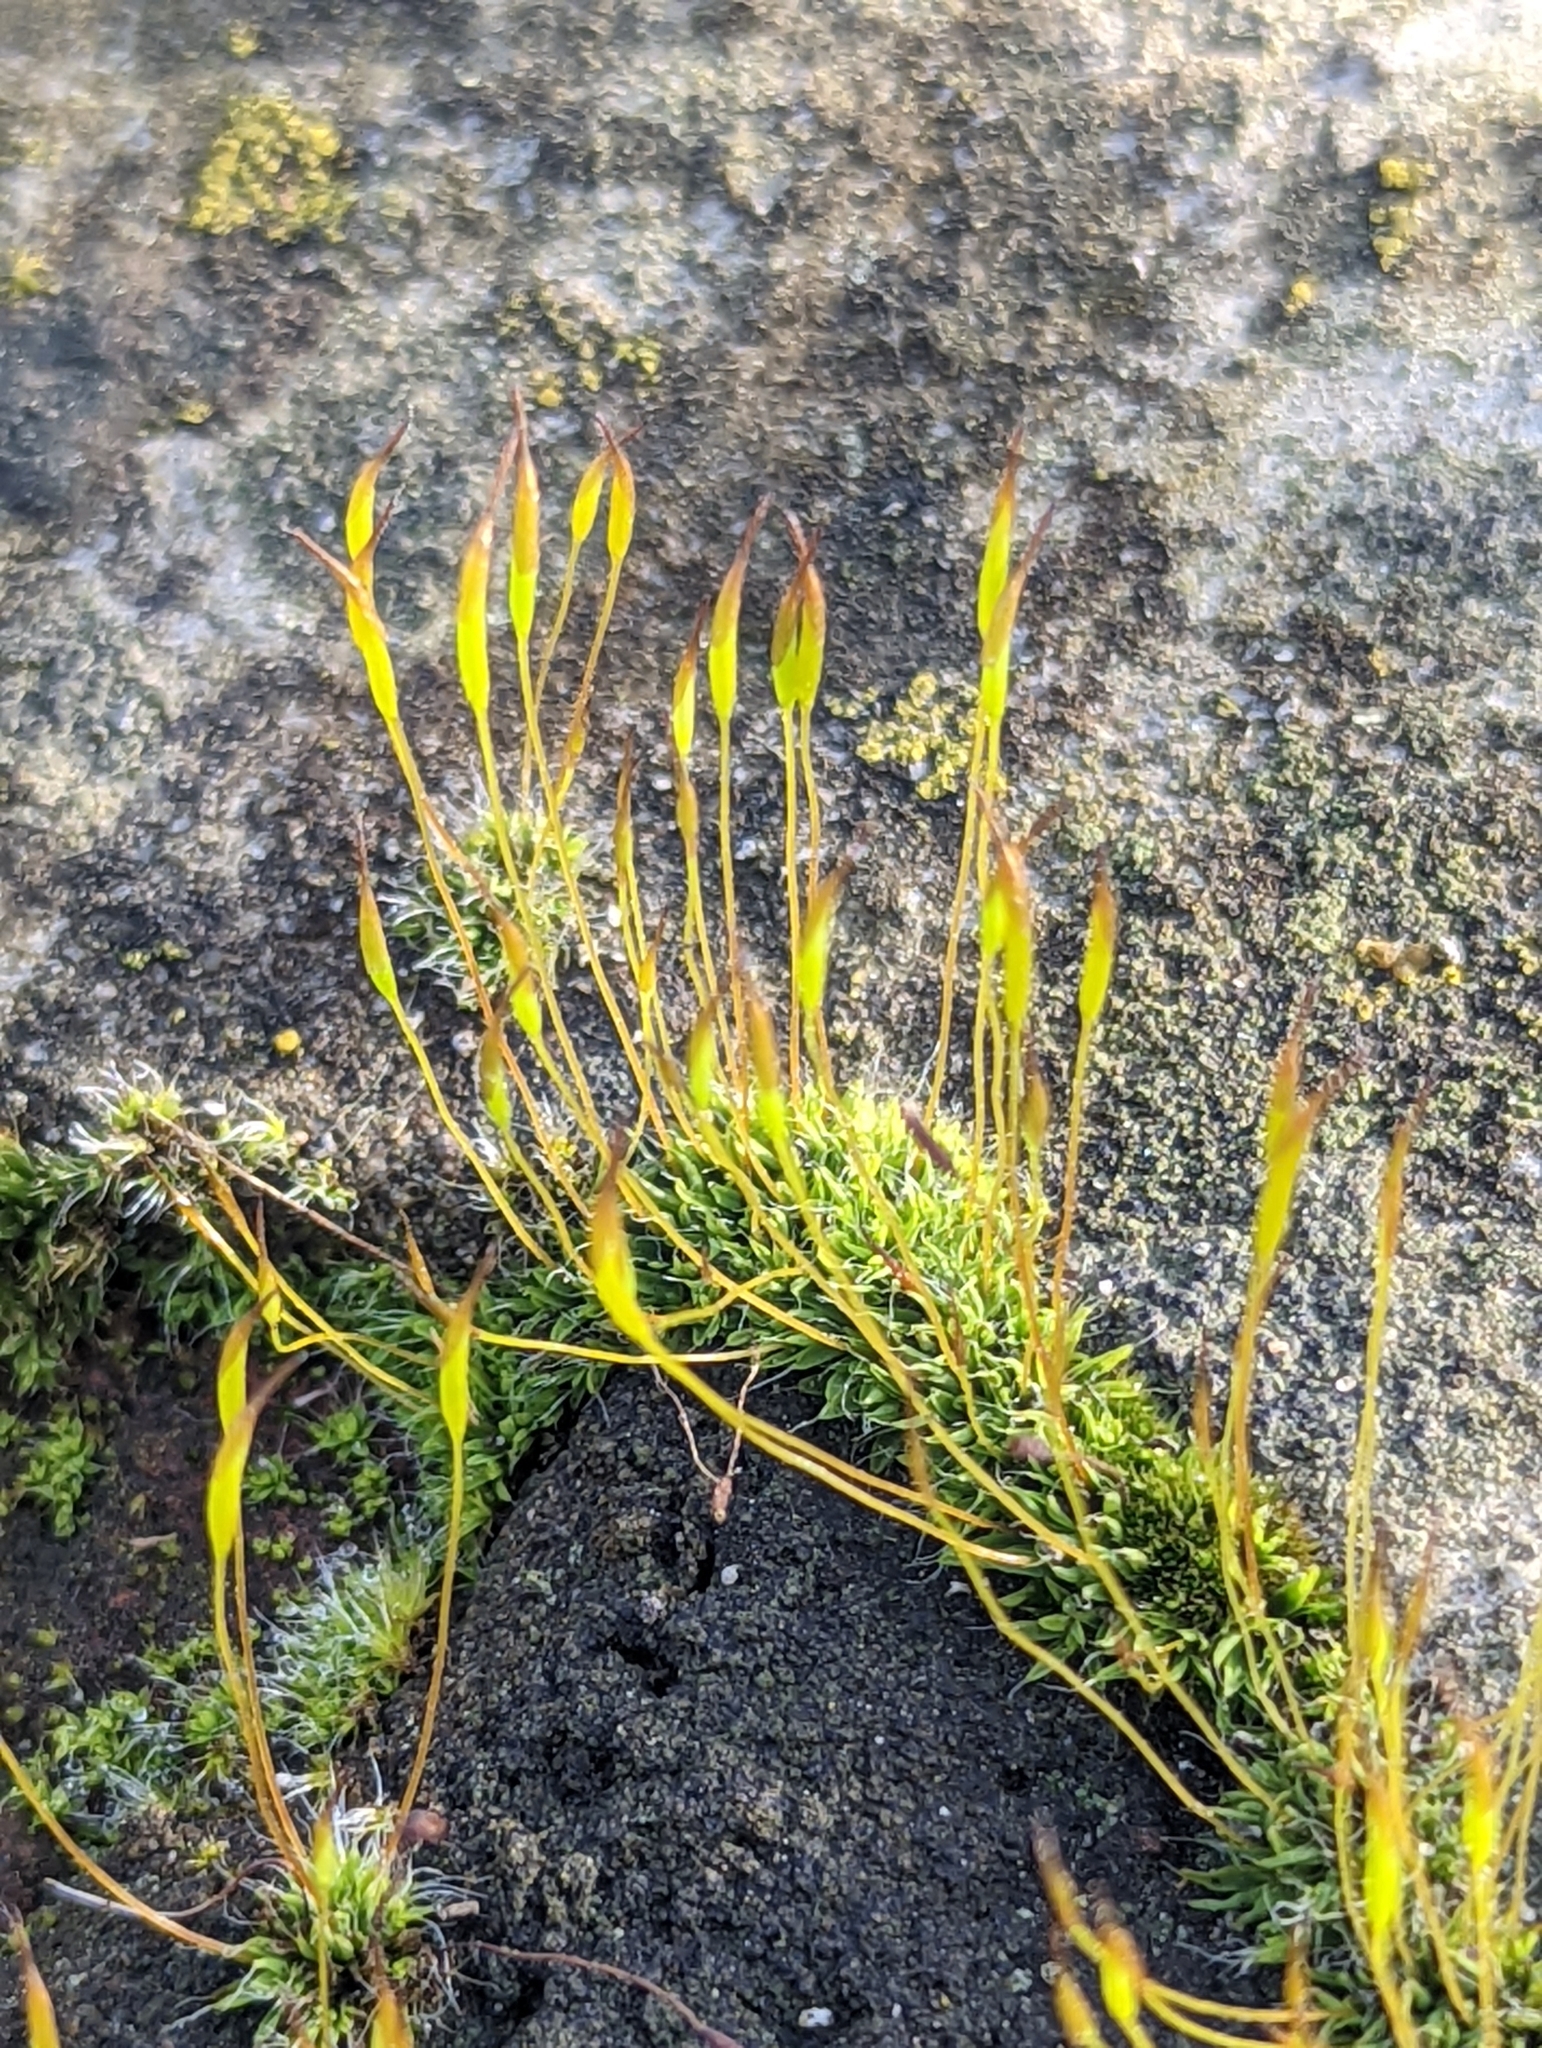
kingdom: Plantae
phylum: Bryophyta
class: Bryopsida
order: Pottiales
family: Pottiaceae
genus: Tortula
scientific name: Tortula muralis
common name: Wall screw-moss
